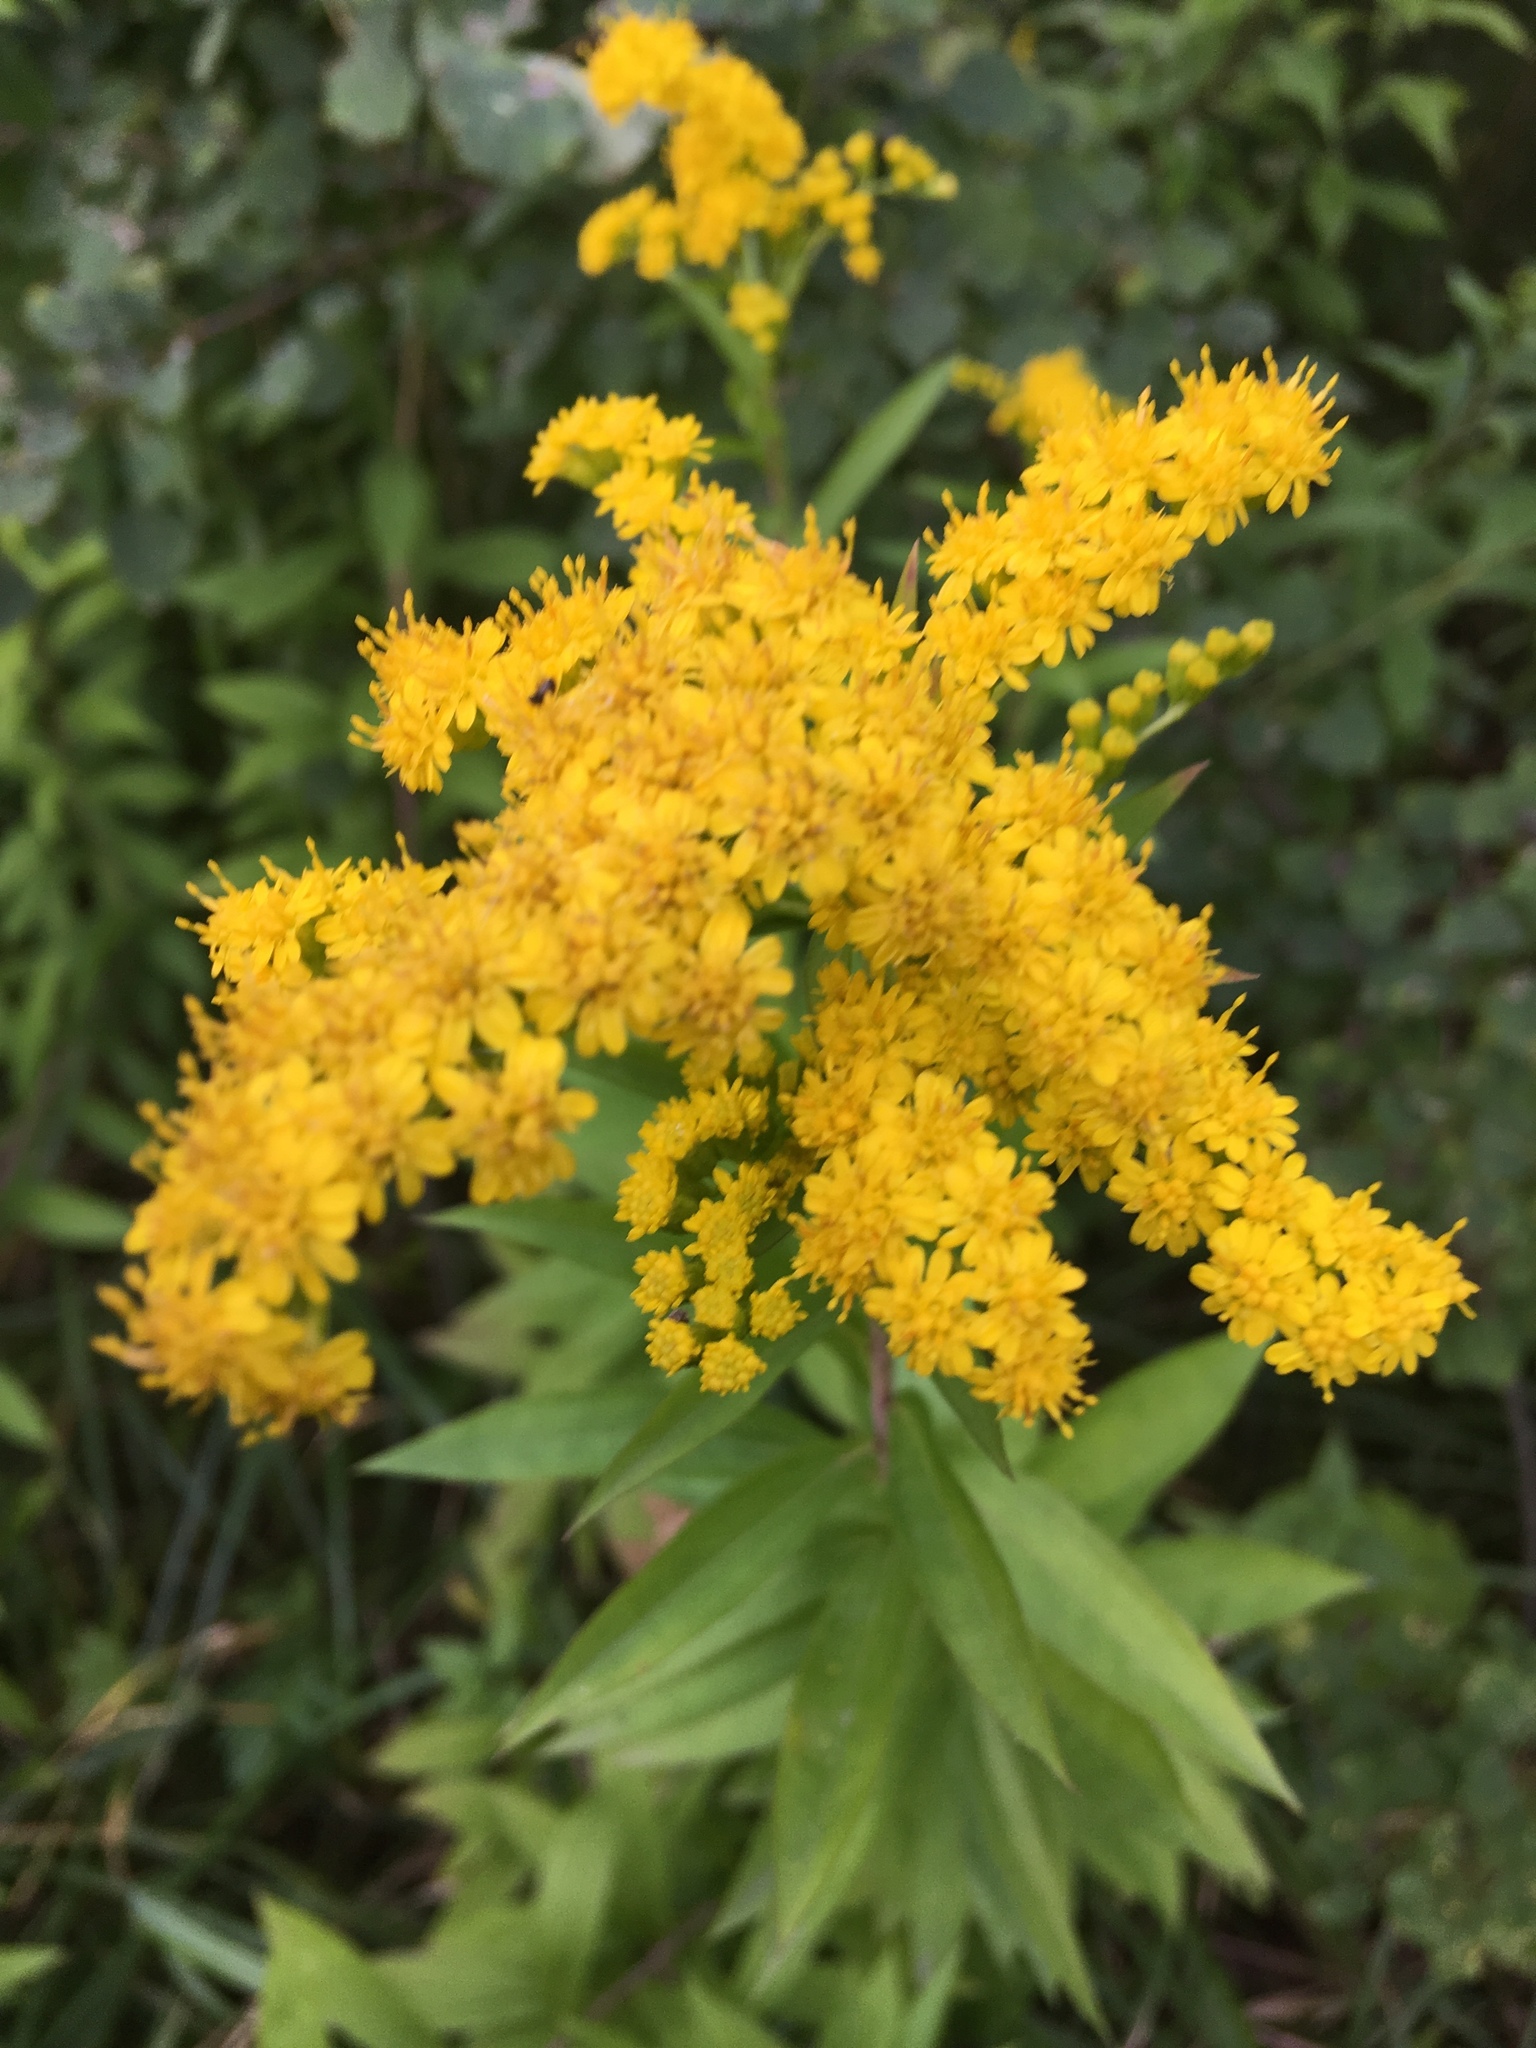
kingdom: Plantae
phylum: Tracheophyta
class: Magnoliopsida
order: Asterales
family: Asteraceae
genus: Solidago
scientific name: Solidago gigantea
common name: Giant goldenrod
